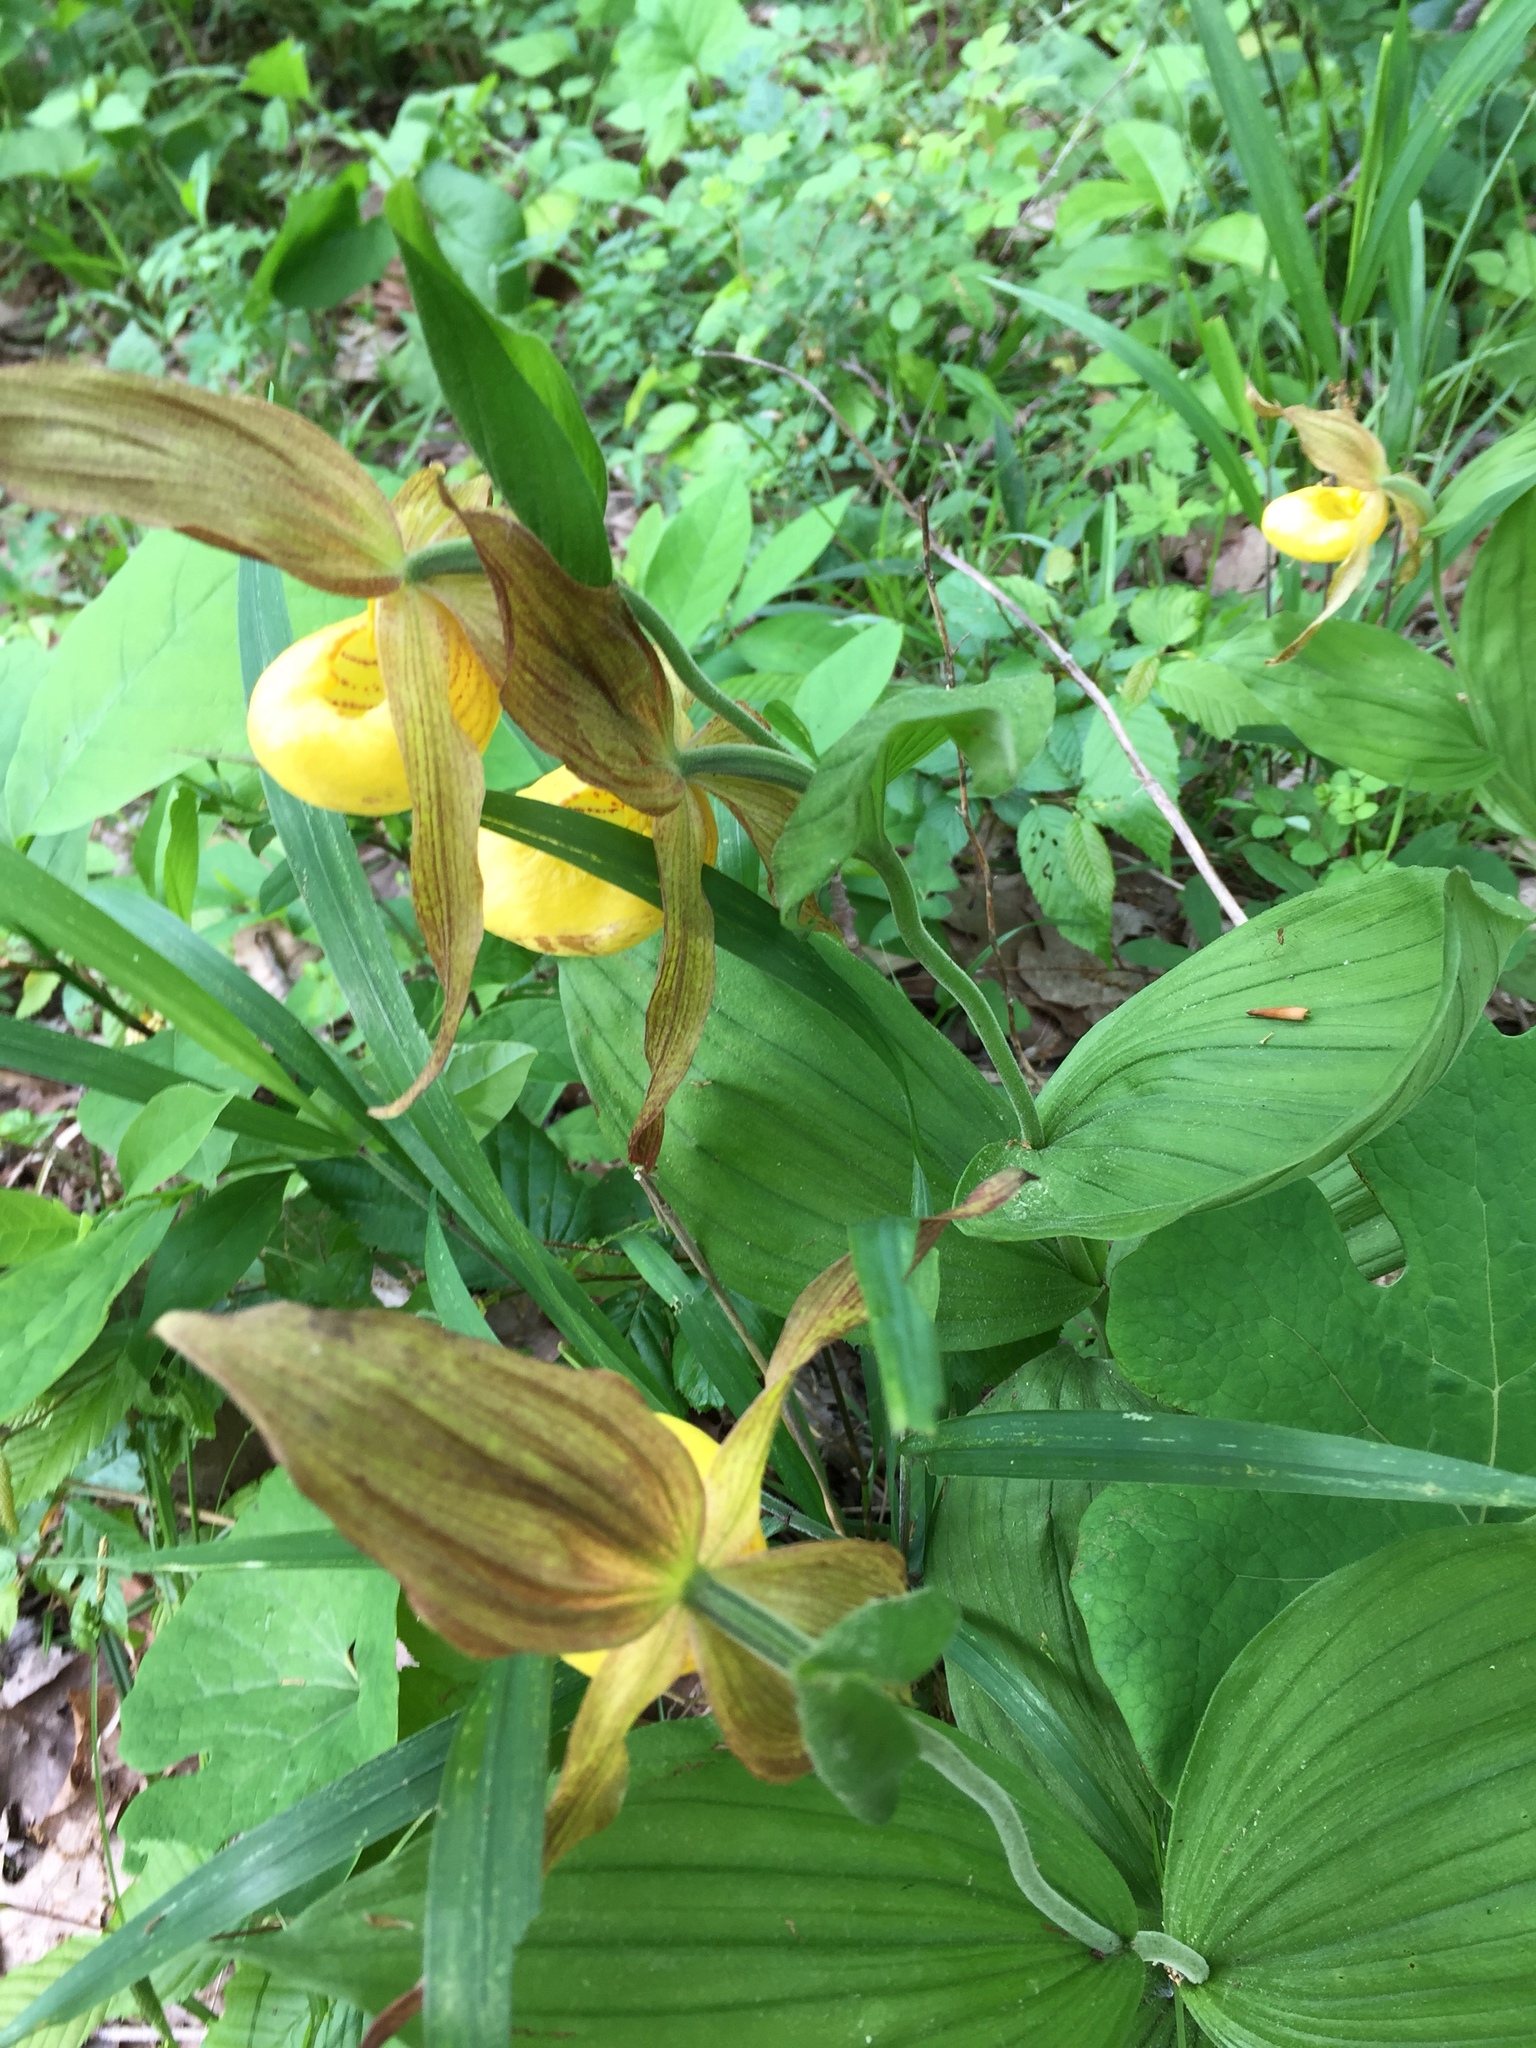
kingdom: Plantae
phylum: Tracheophyta
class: Liliopsida
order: Asparagales
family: Orchidaceae
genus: Cypripedium
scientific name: Cypripedium parviflorum
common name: American yellow lady's-slipper
